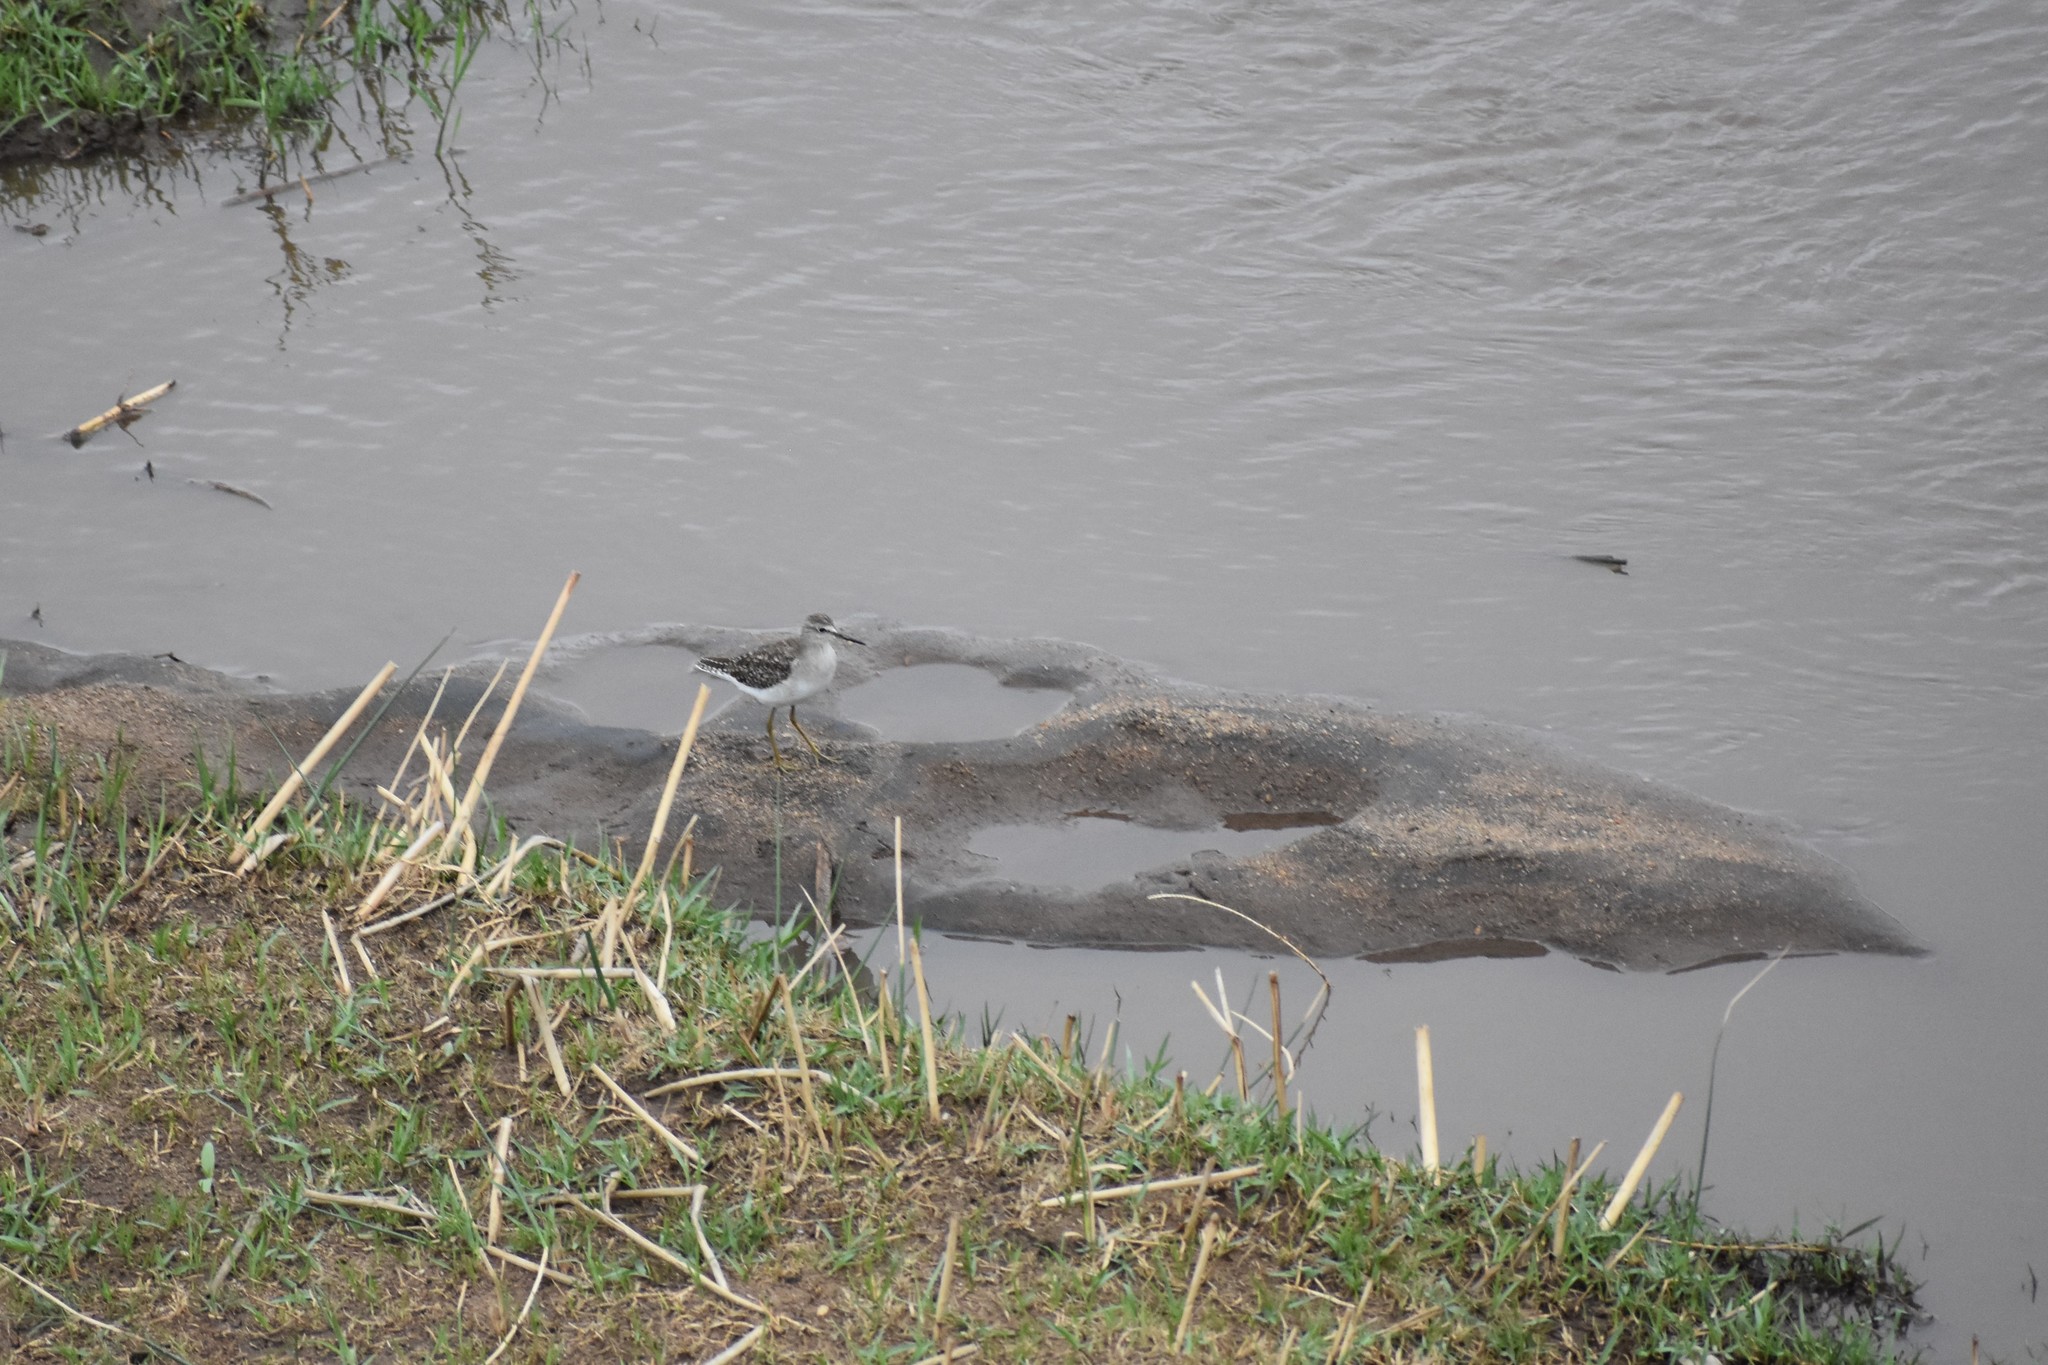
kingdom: Animalia
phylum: Chordata
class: Aves
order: Charadriiformes
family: Scolopacidae
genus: Tringa
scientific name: Tringa glareola
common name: Wood sandpiper
